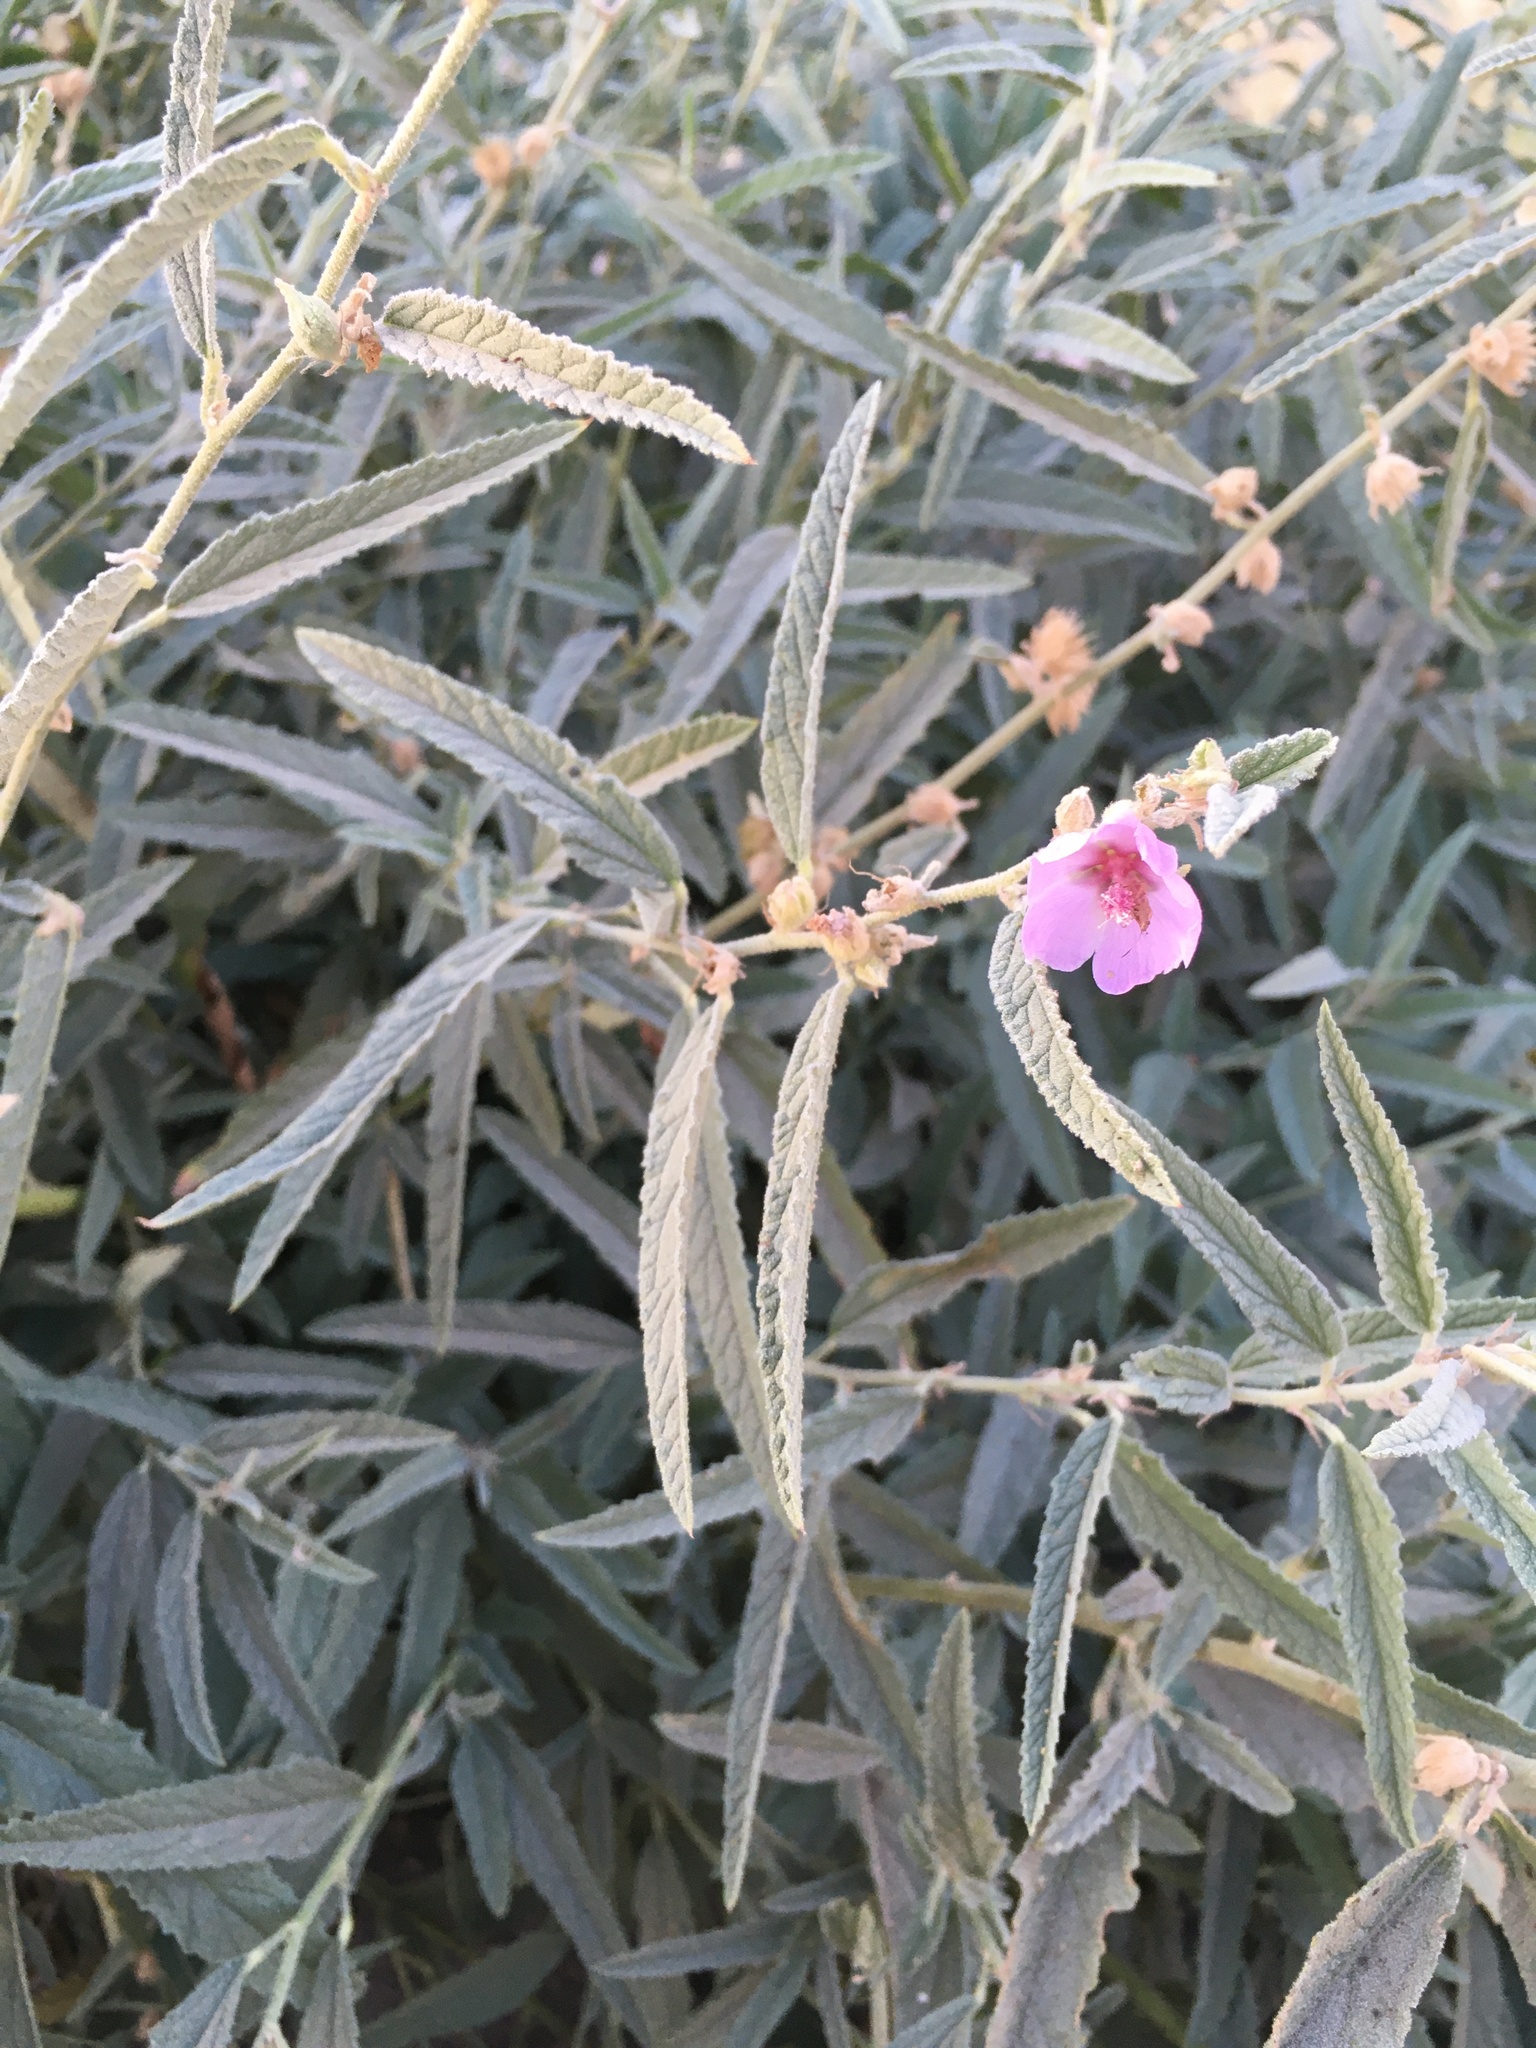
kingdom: Plantae
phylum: Tracheophyta
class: Magnoliopsida
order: Malvales
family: Malvaceae
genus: Sphaeralcea
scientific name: Sphaeralcea angustifolia
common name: Copper globe-mallow
